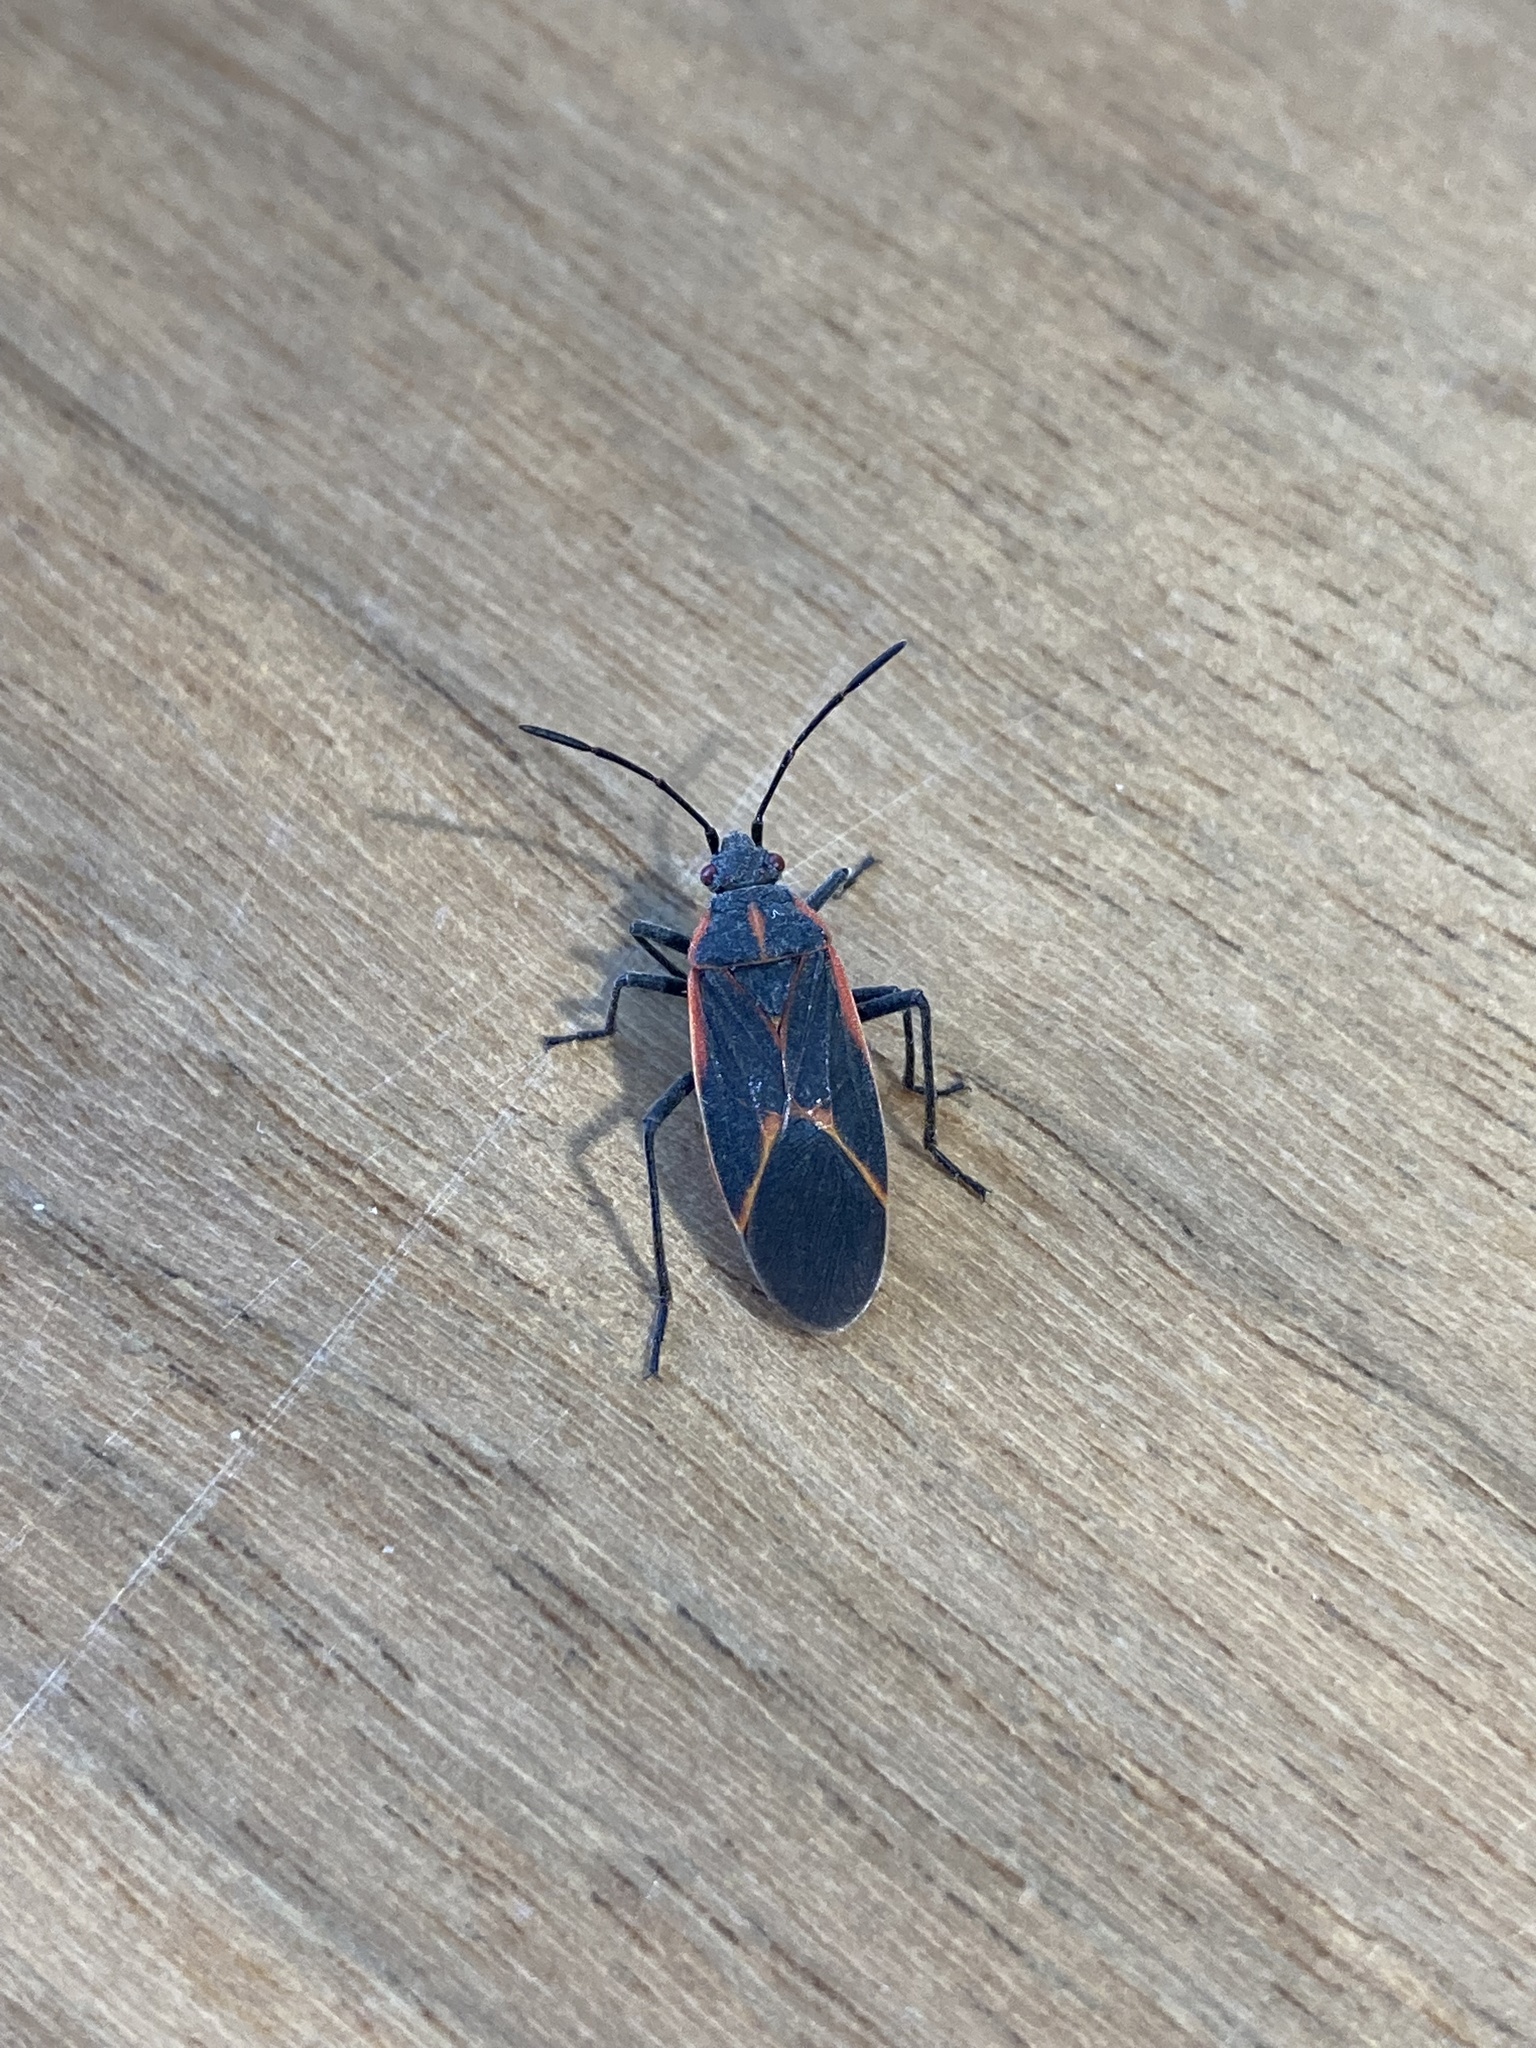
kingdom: Animalia
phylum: Arthropoda
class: Insecta
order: Hemiptera
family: Rhopalidae
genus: Boisea
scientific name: Boisea trivittata
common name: Boxelder bug
